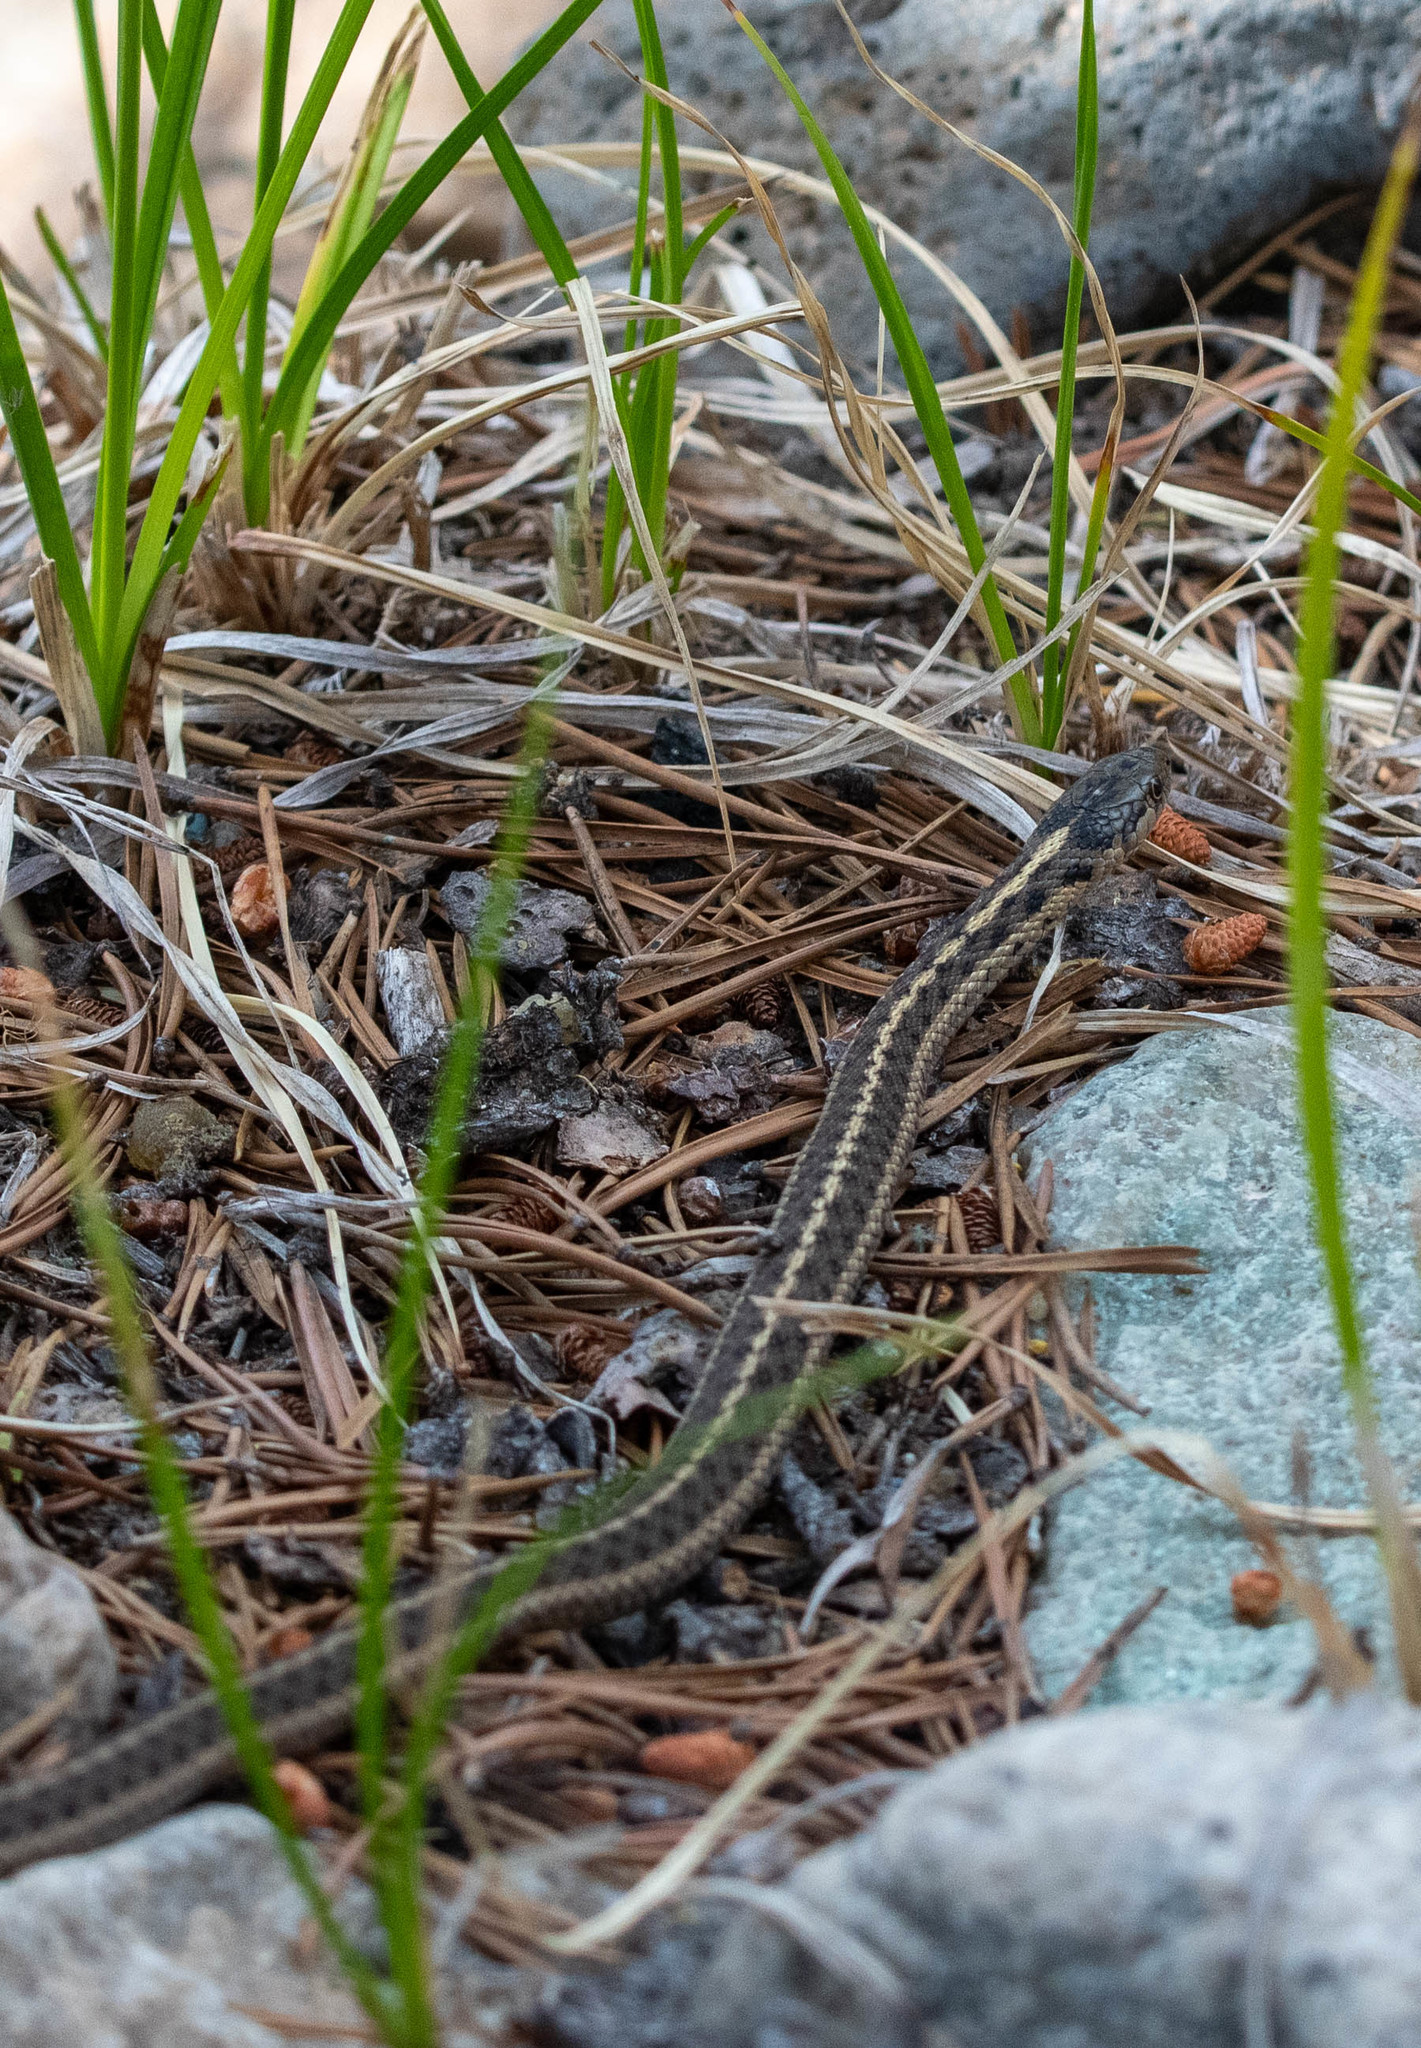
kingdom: Animalia
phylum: Chordata
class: Squamata
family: Colubridae
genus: Thamnophis
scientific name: Thamnophis elegans
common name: Western terrestrial garter snake
